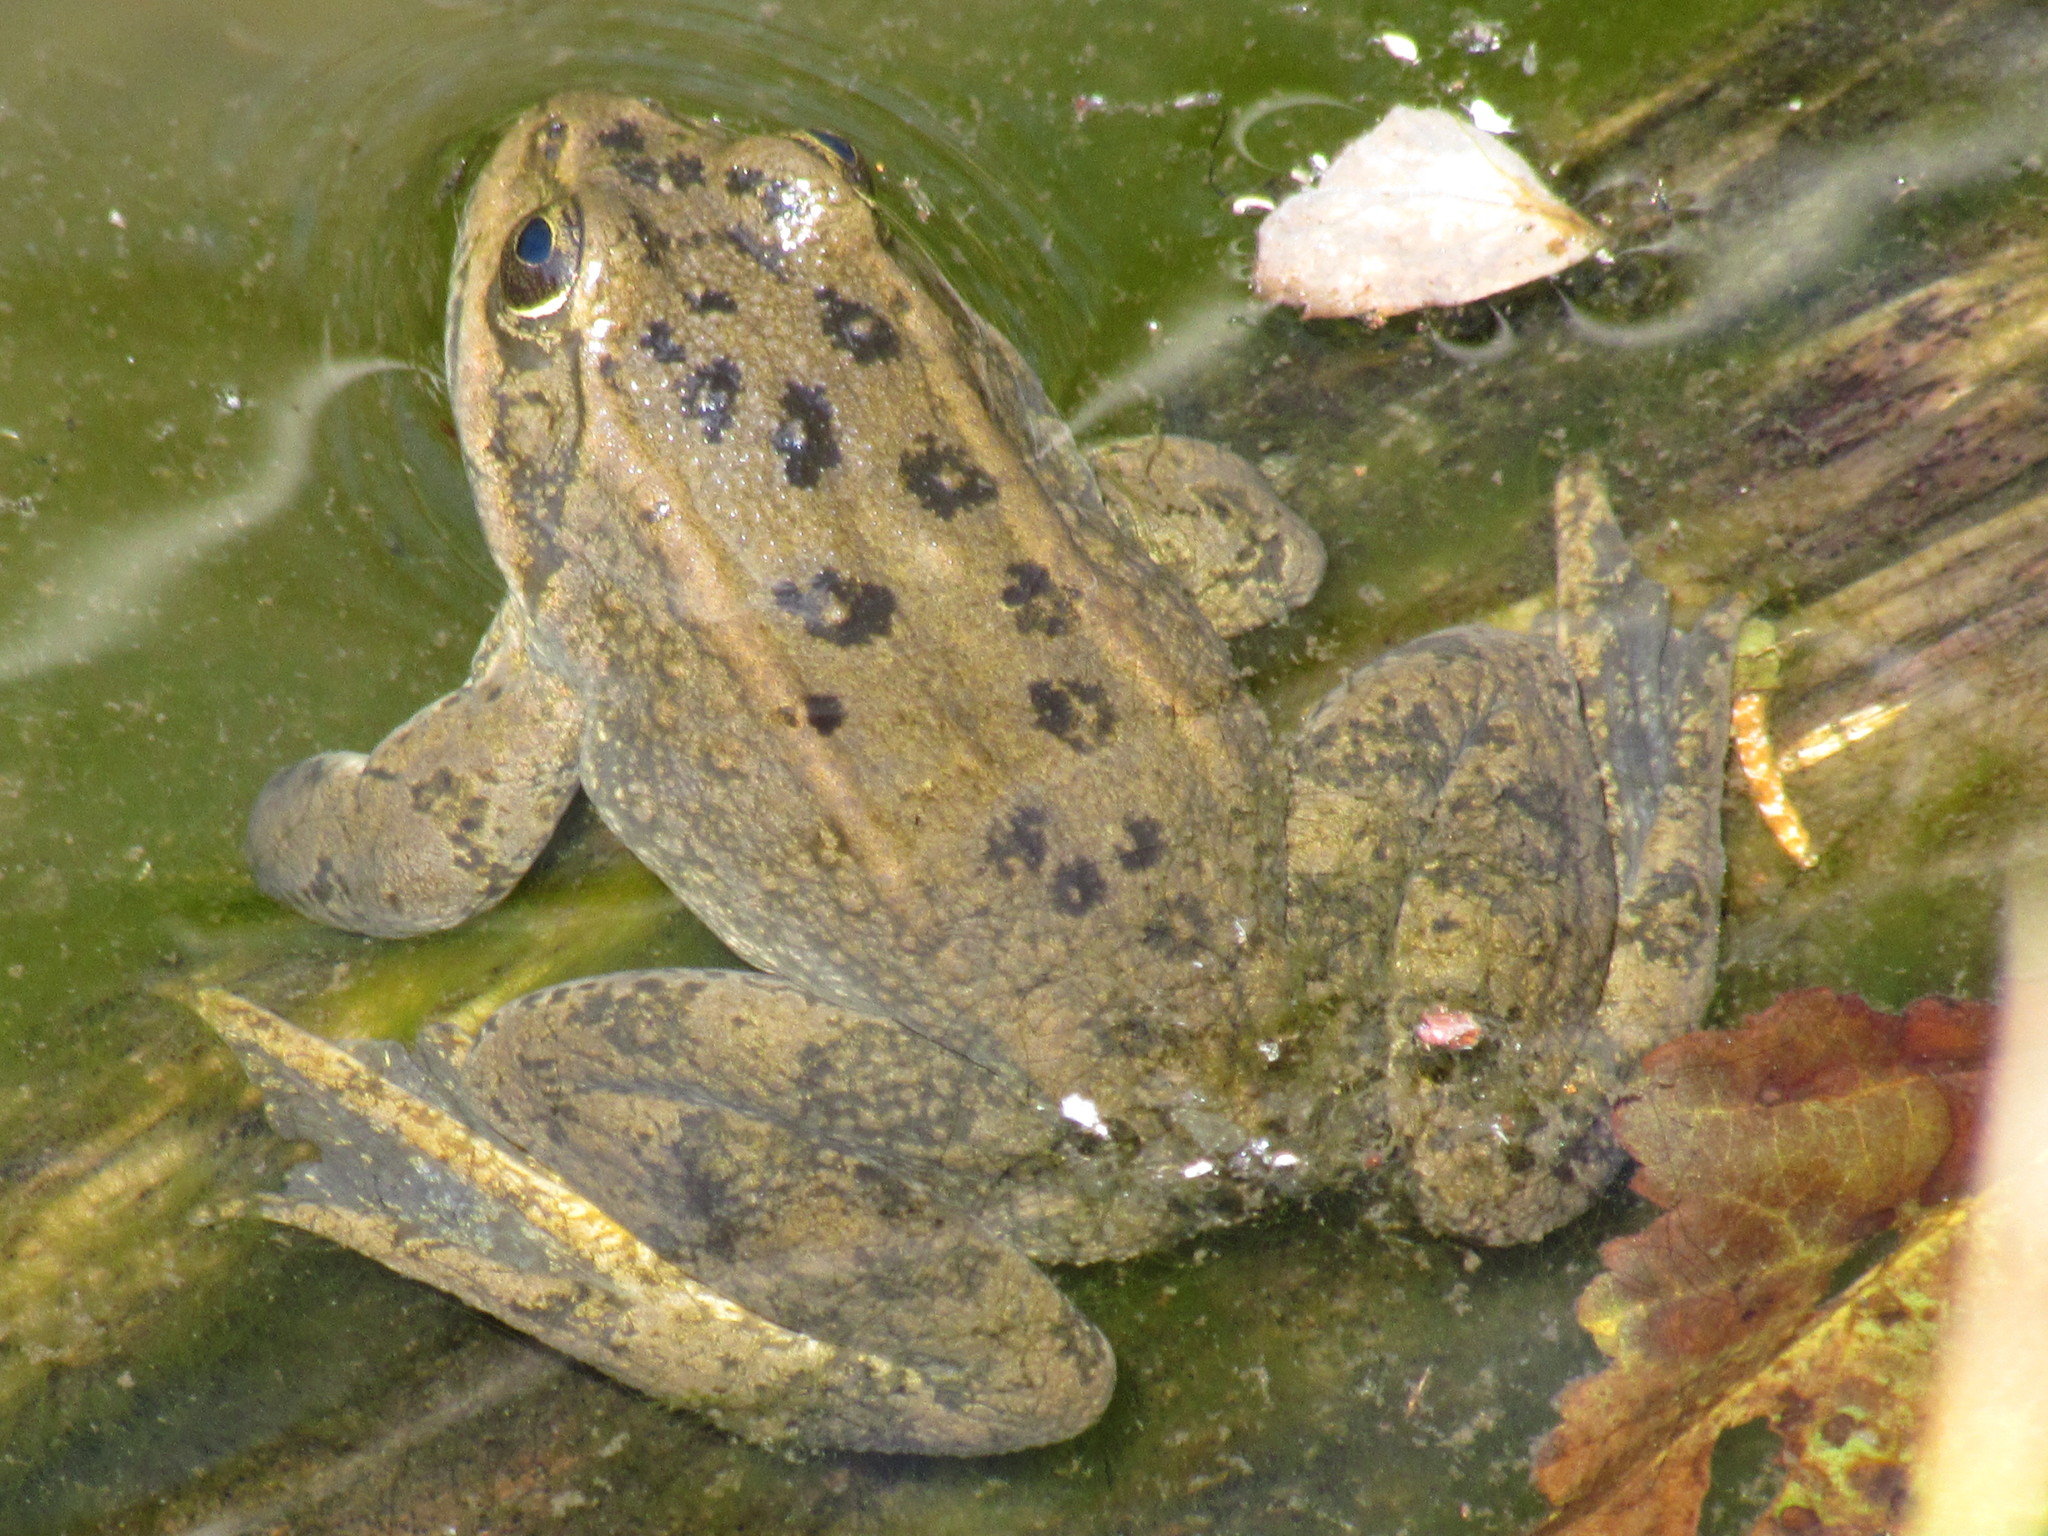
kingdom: Animalia
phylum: Chordata
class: Amphibia
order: Anura
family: Ranidae
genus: Rana
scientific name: Rana luteiventris
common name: Columbia spotted frog
